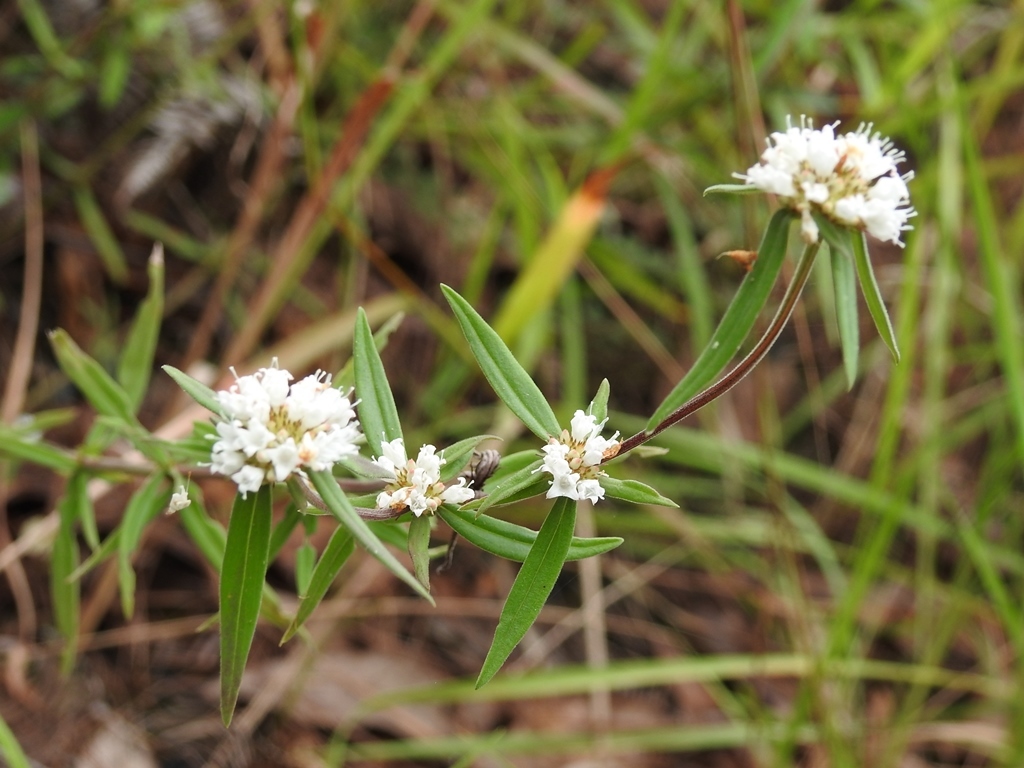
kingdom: Plantae
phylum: Tracheophyta
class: Magnoliopsida
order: Gentianales
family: Rubiaceae
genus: Spermacoce
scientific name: Spermacoce suaveolens
